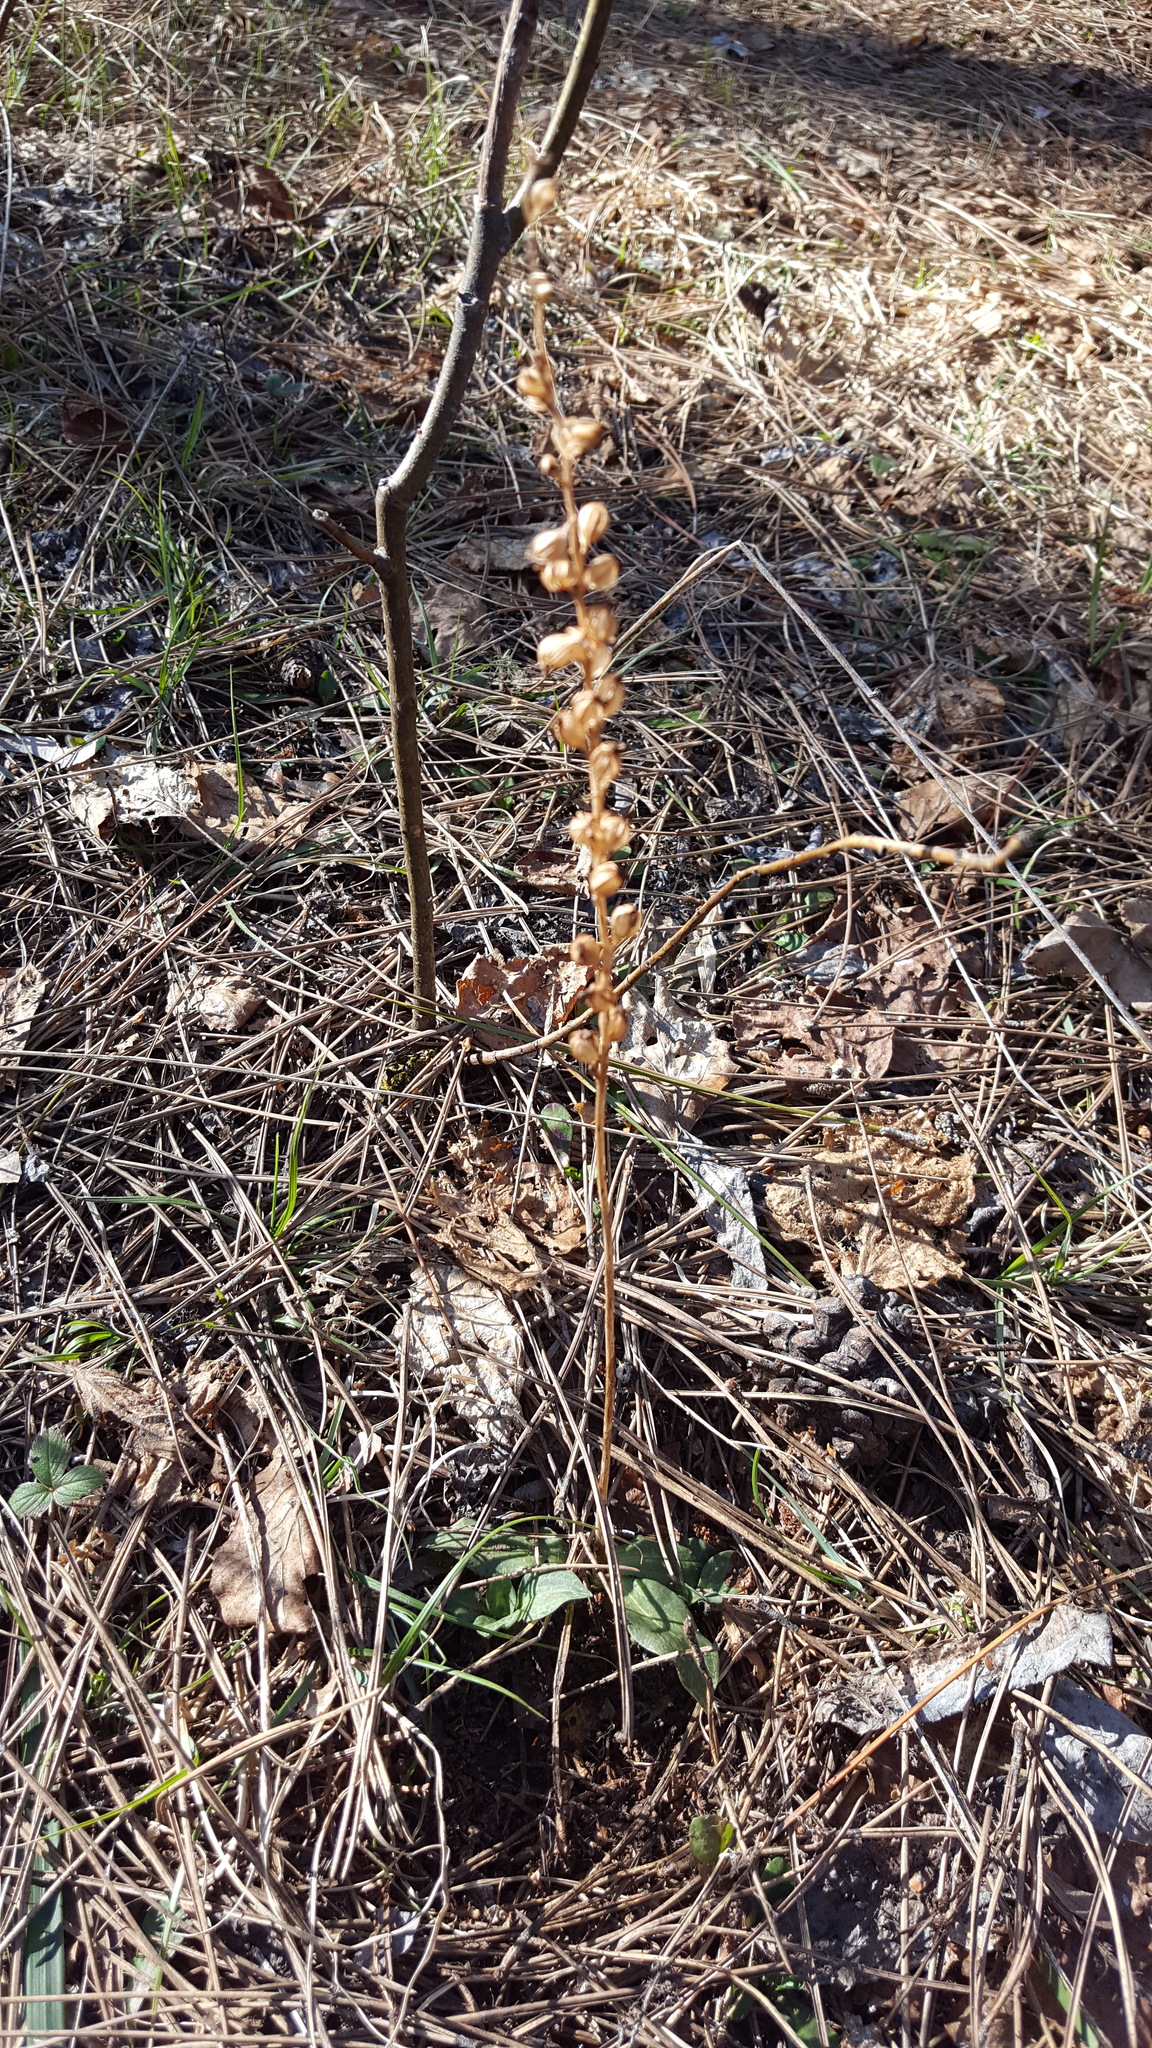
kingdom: Plantae
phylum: Tracheophyta
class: Liliopsida
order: Asparagales
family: Orchidaceae
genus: Goodyera
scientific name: Goodyera tesselata
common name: Checkered rattlesnake-plantain
